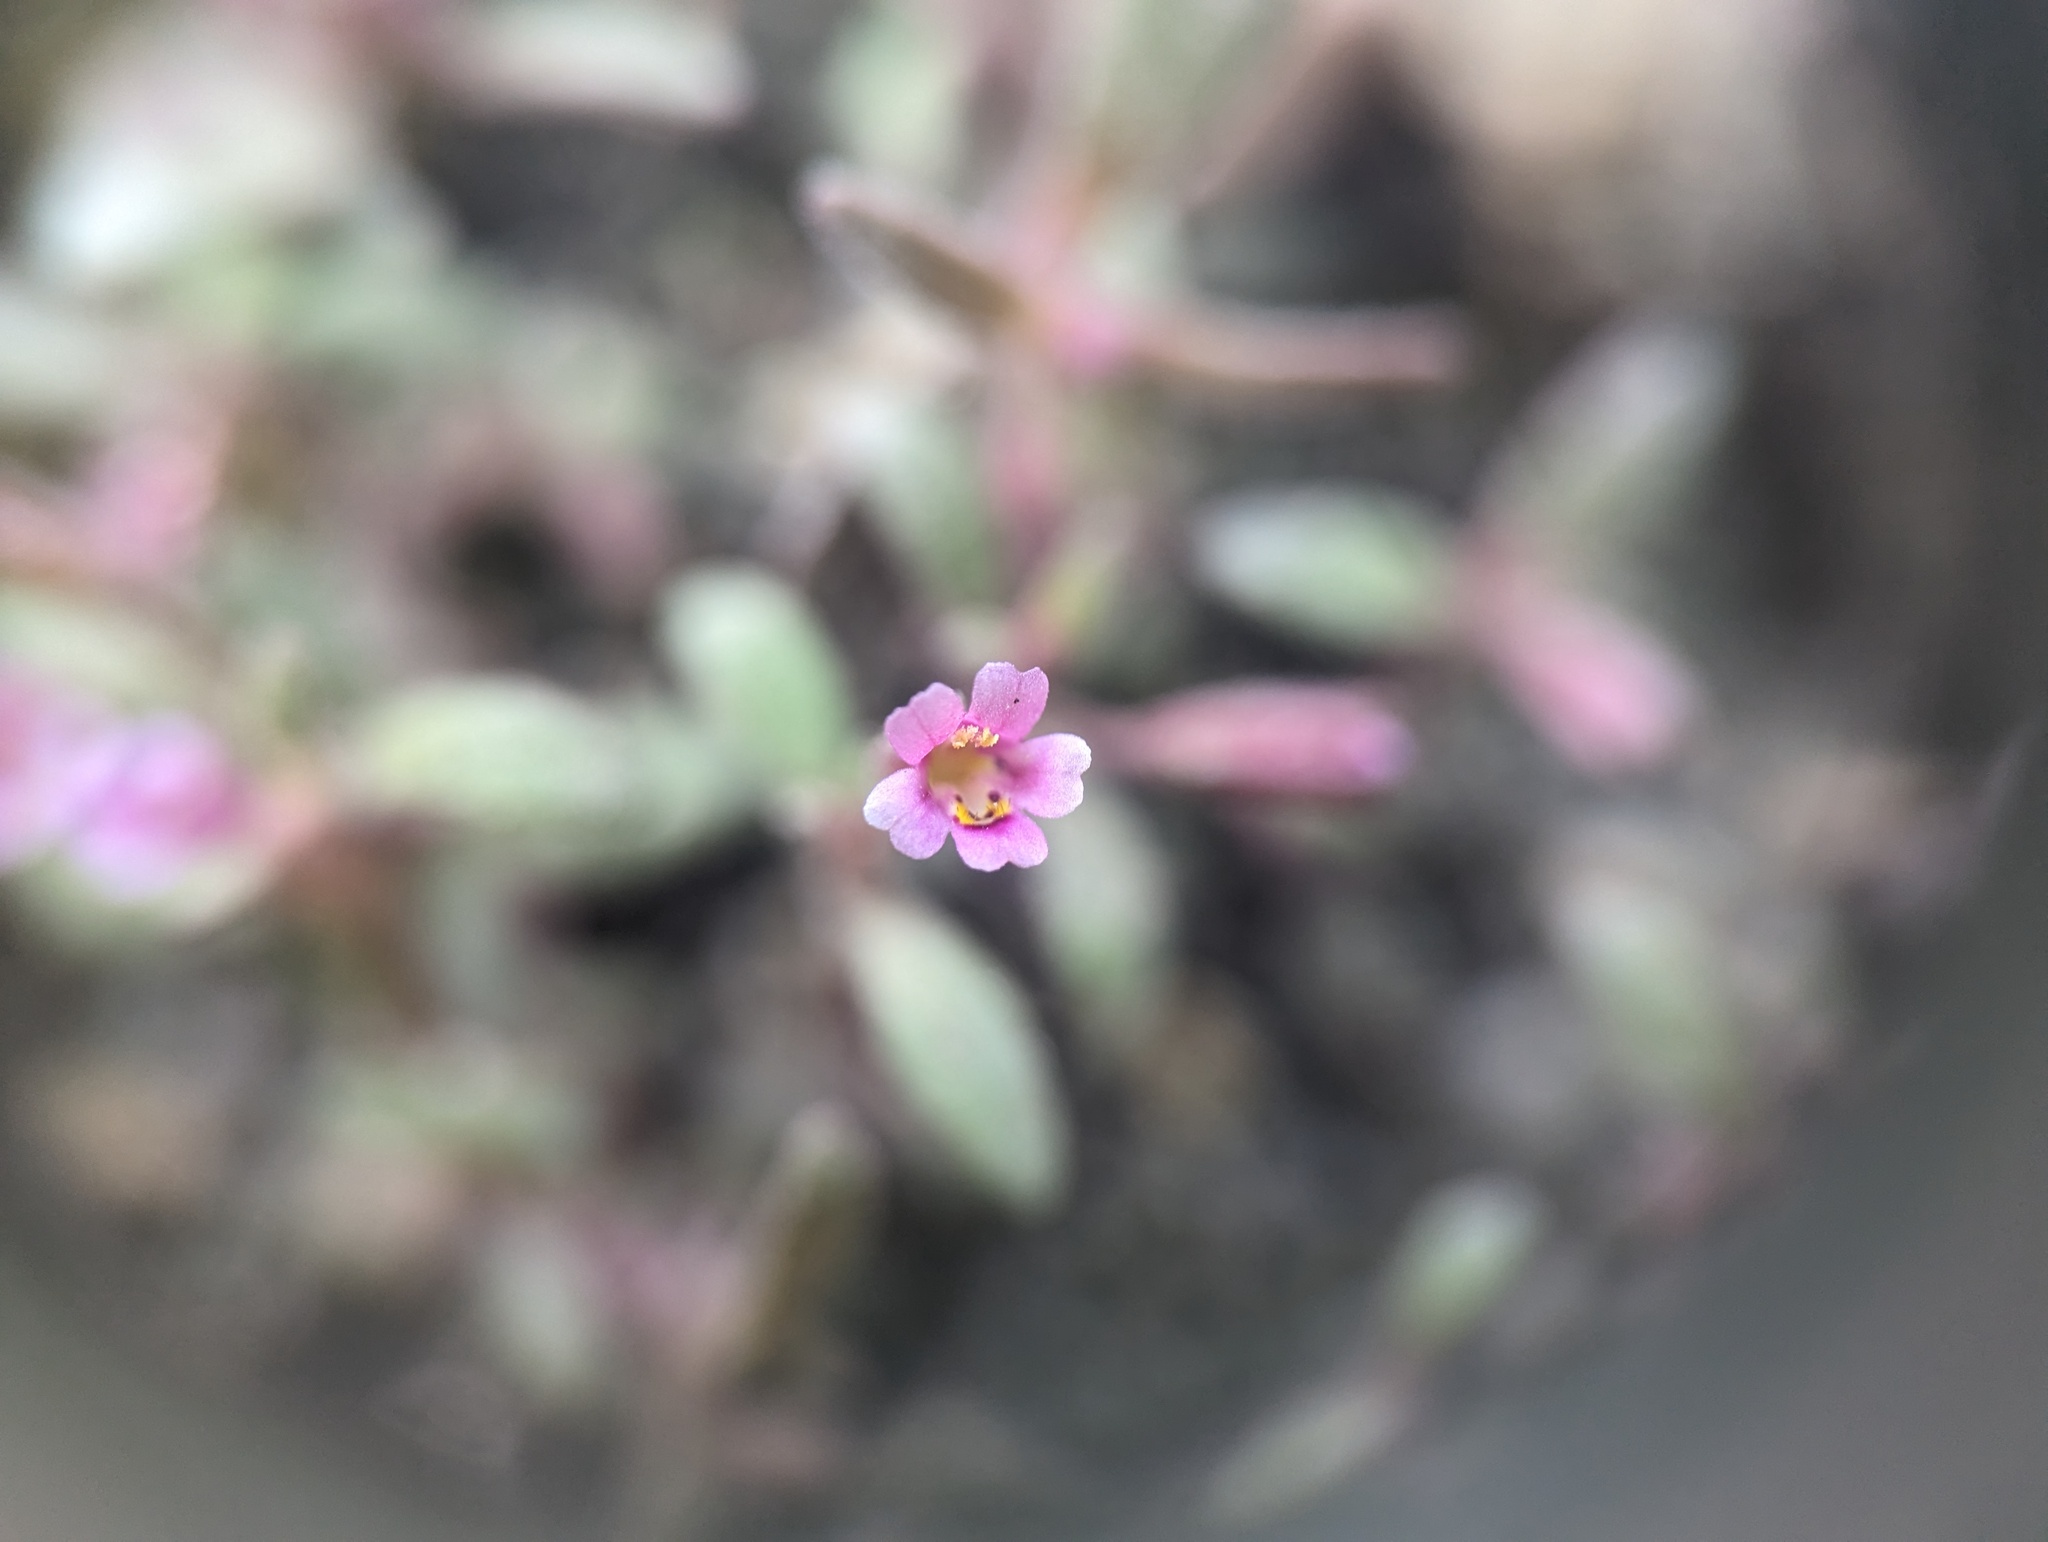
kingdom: Plantae
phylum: Tracheophyta
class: Magnoliopsida
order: Lamiales
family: Phrymaceae
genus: Erythranthe
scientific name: Erythranthe breweri
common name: Brewer's monkeyflower
